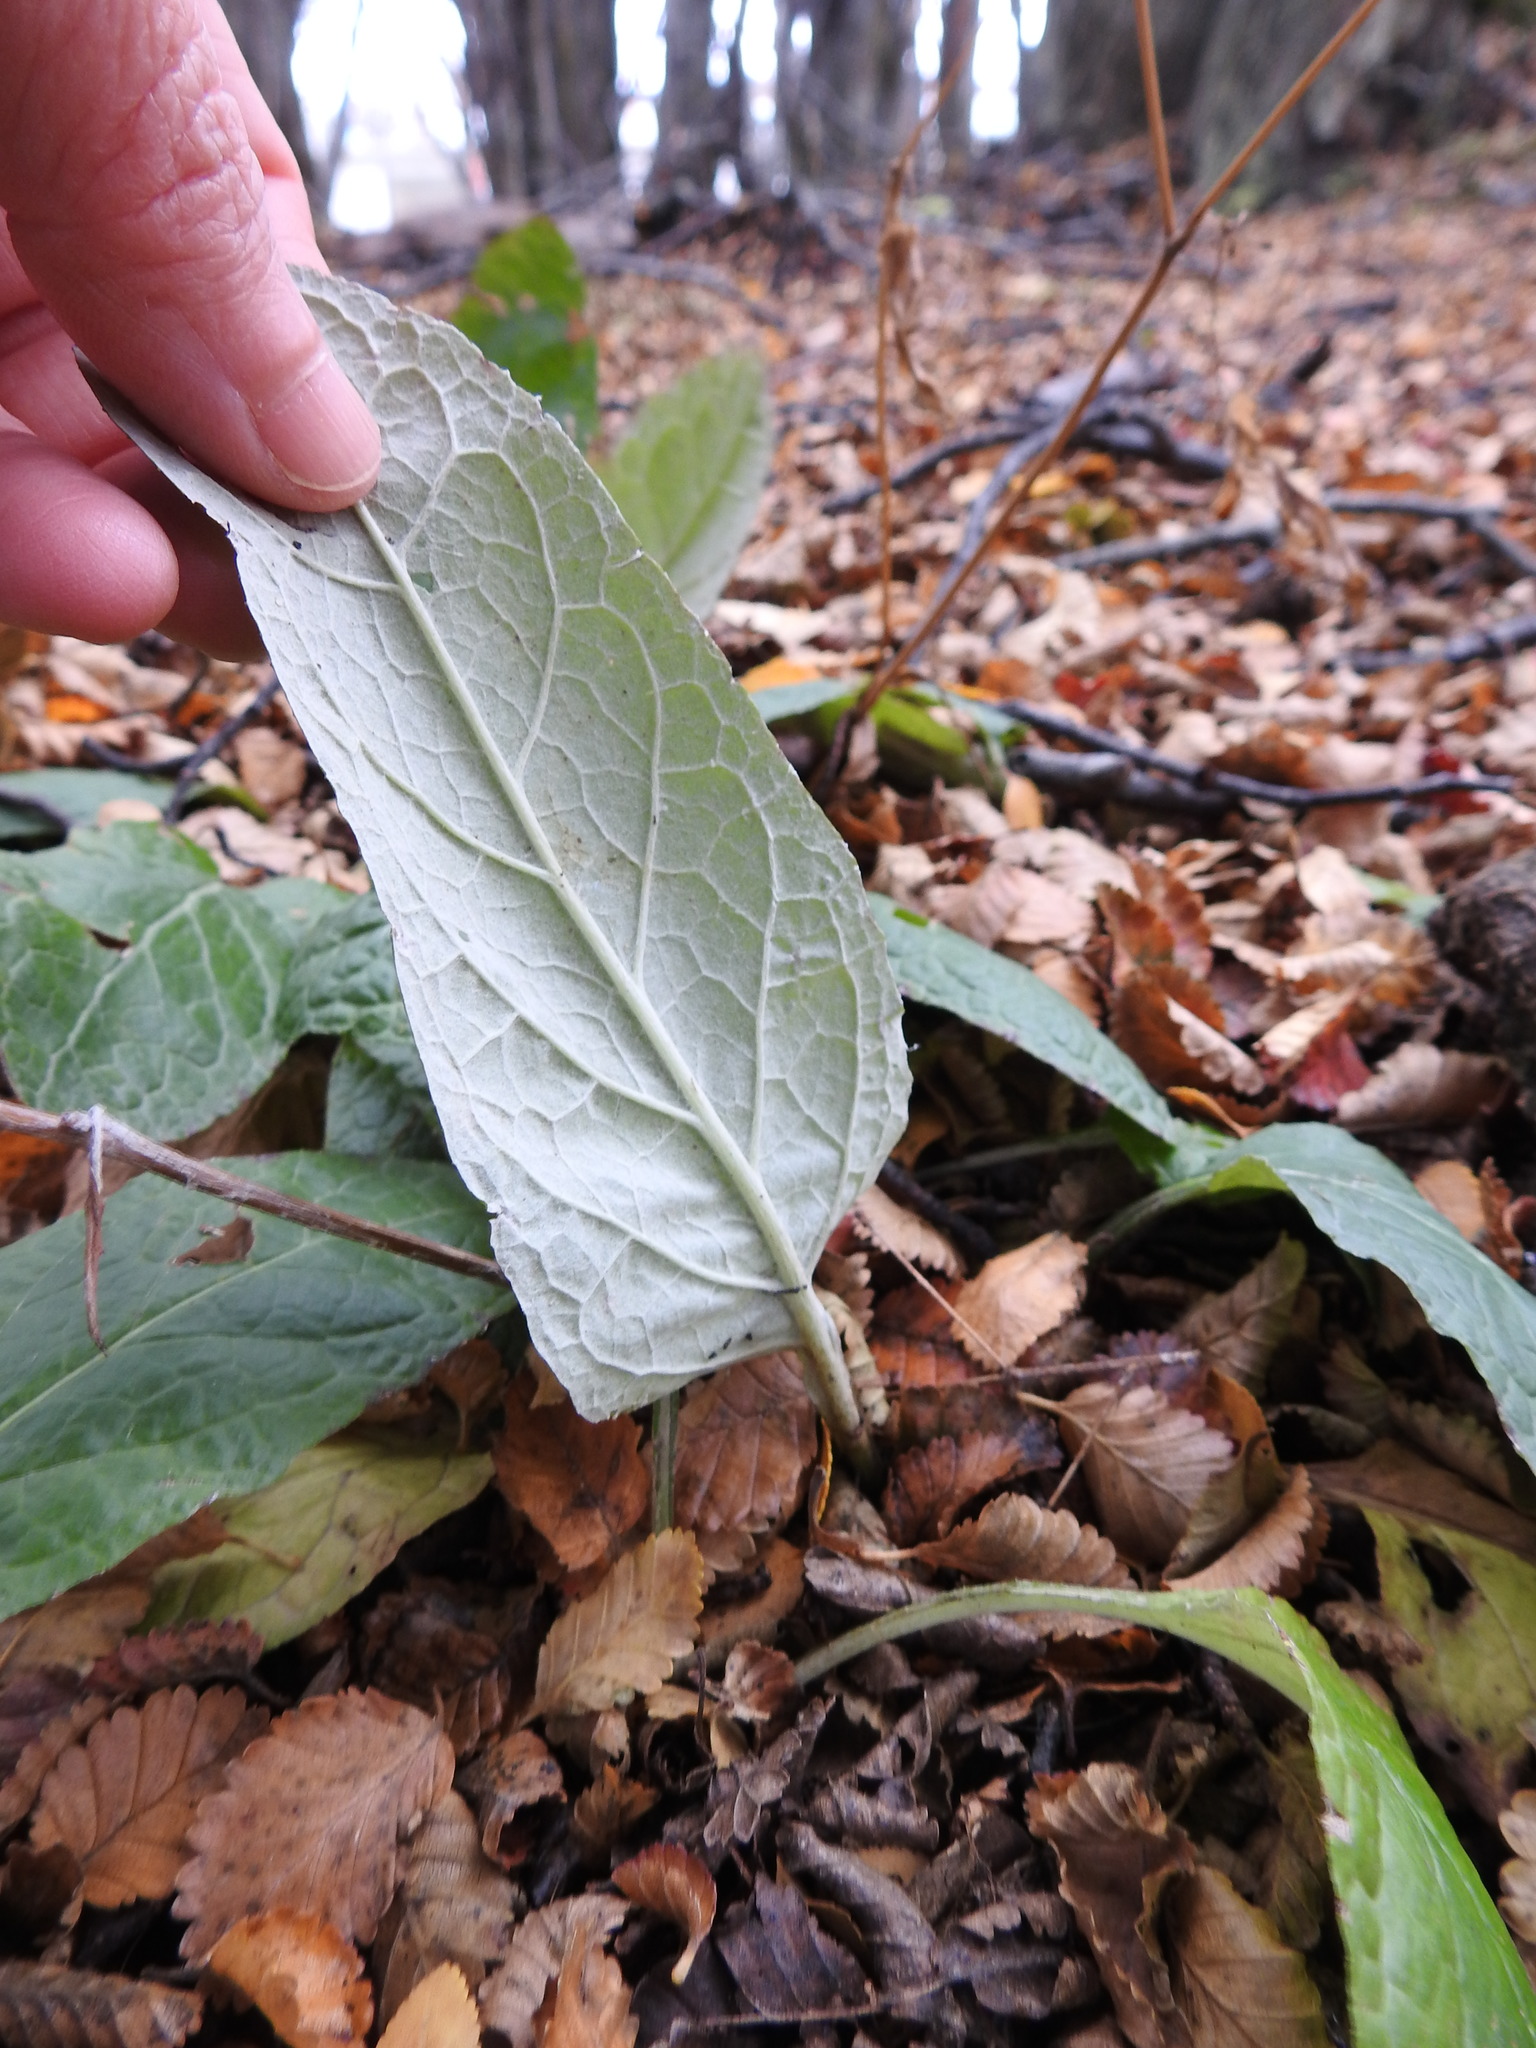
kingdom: Plantae
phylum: Tracheophyta
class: Magnoliopsida
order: Asterales
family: Asteraceae
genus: Adenocaulon
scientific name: Adenocaulon chilense
